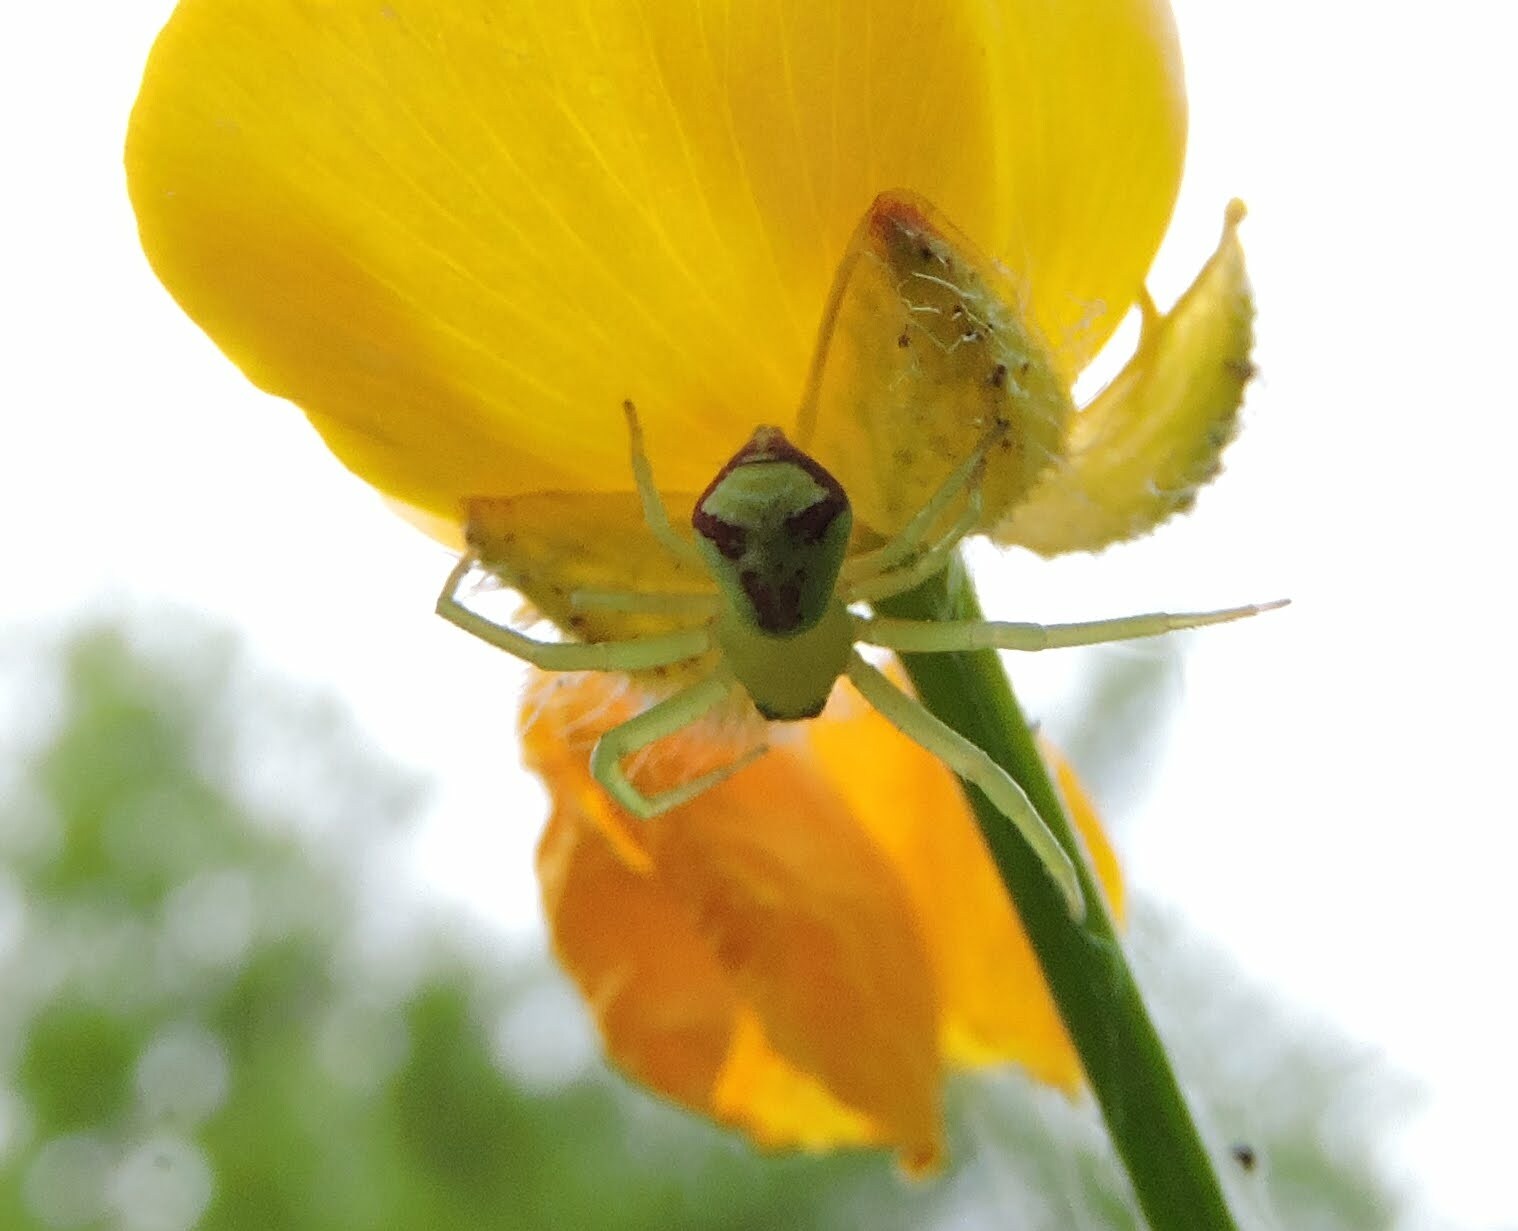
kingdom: Animalia
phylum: Arthropoda
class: Arachnida
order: Araneae
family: Thomisidae
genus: Ebrechtella
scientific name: Ebrechtella tricuspidata
